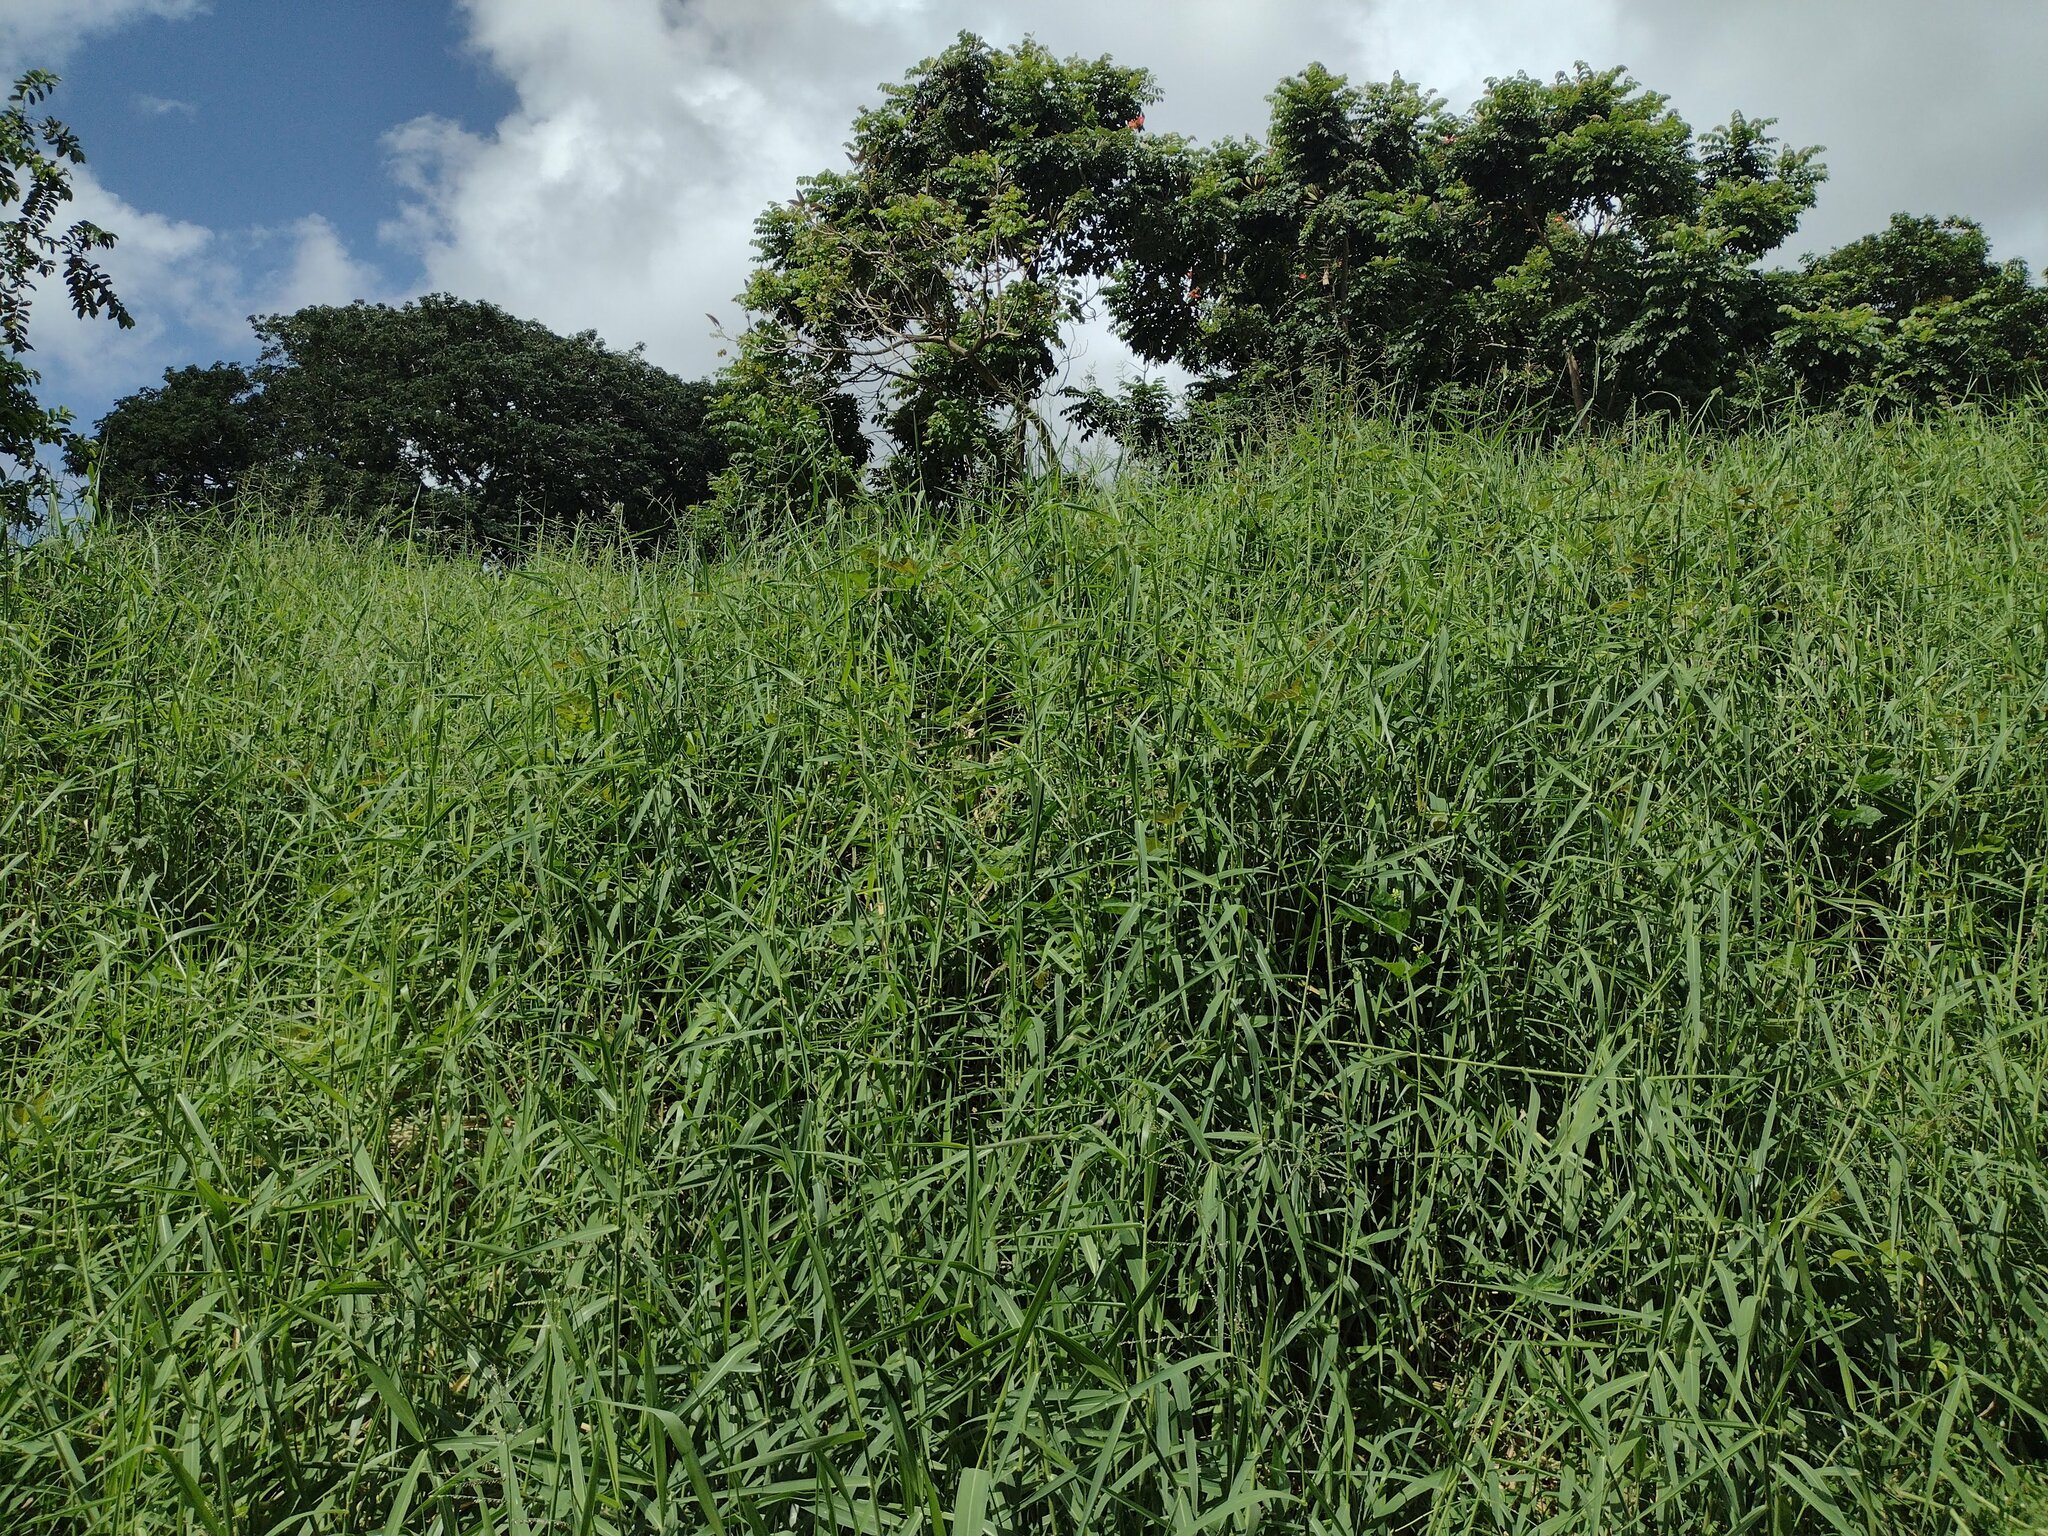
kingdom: Plantae
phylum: Tracheophyta
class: Liliopsida
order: Poales
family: Poaceae
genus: Urochloa
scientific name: Urochloa mutica
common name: Para grass
